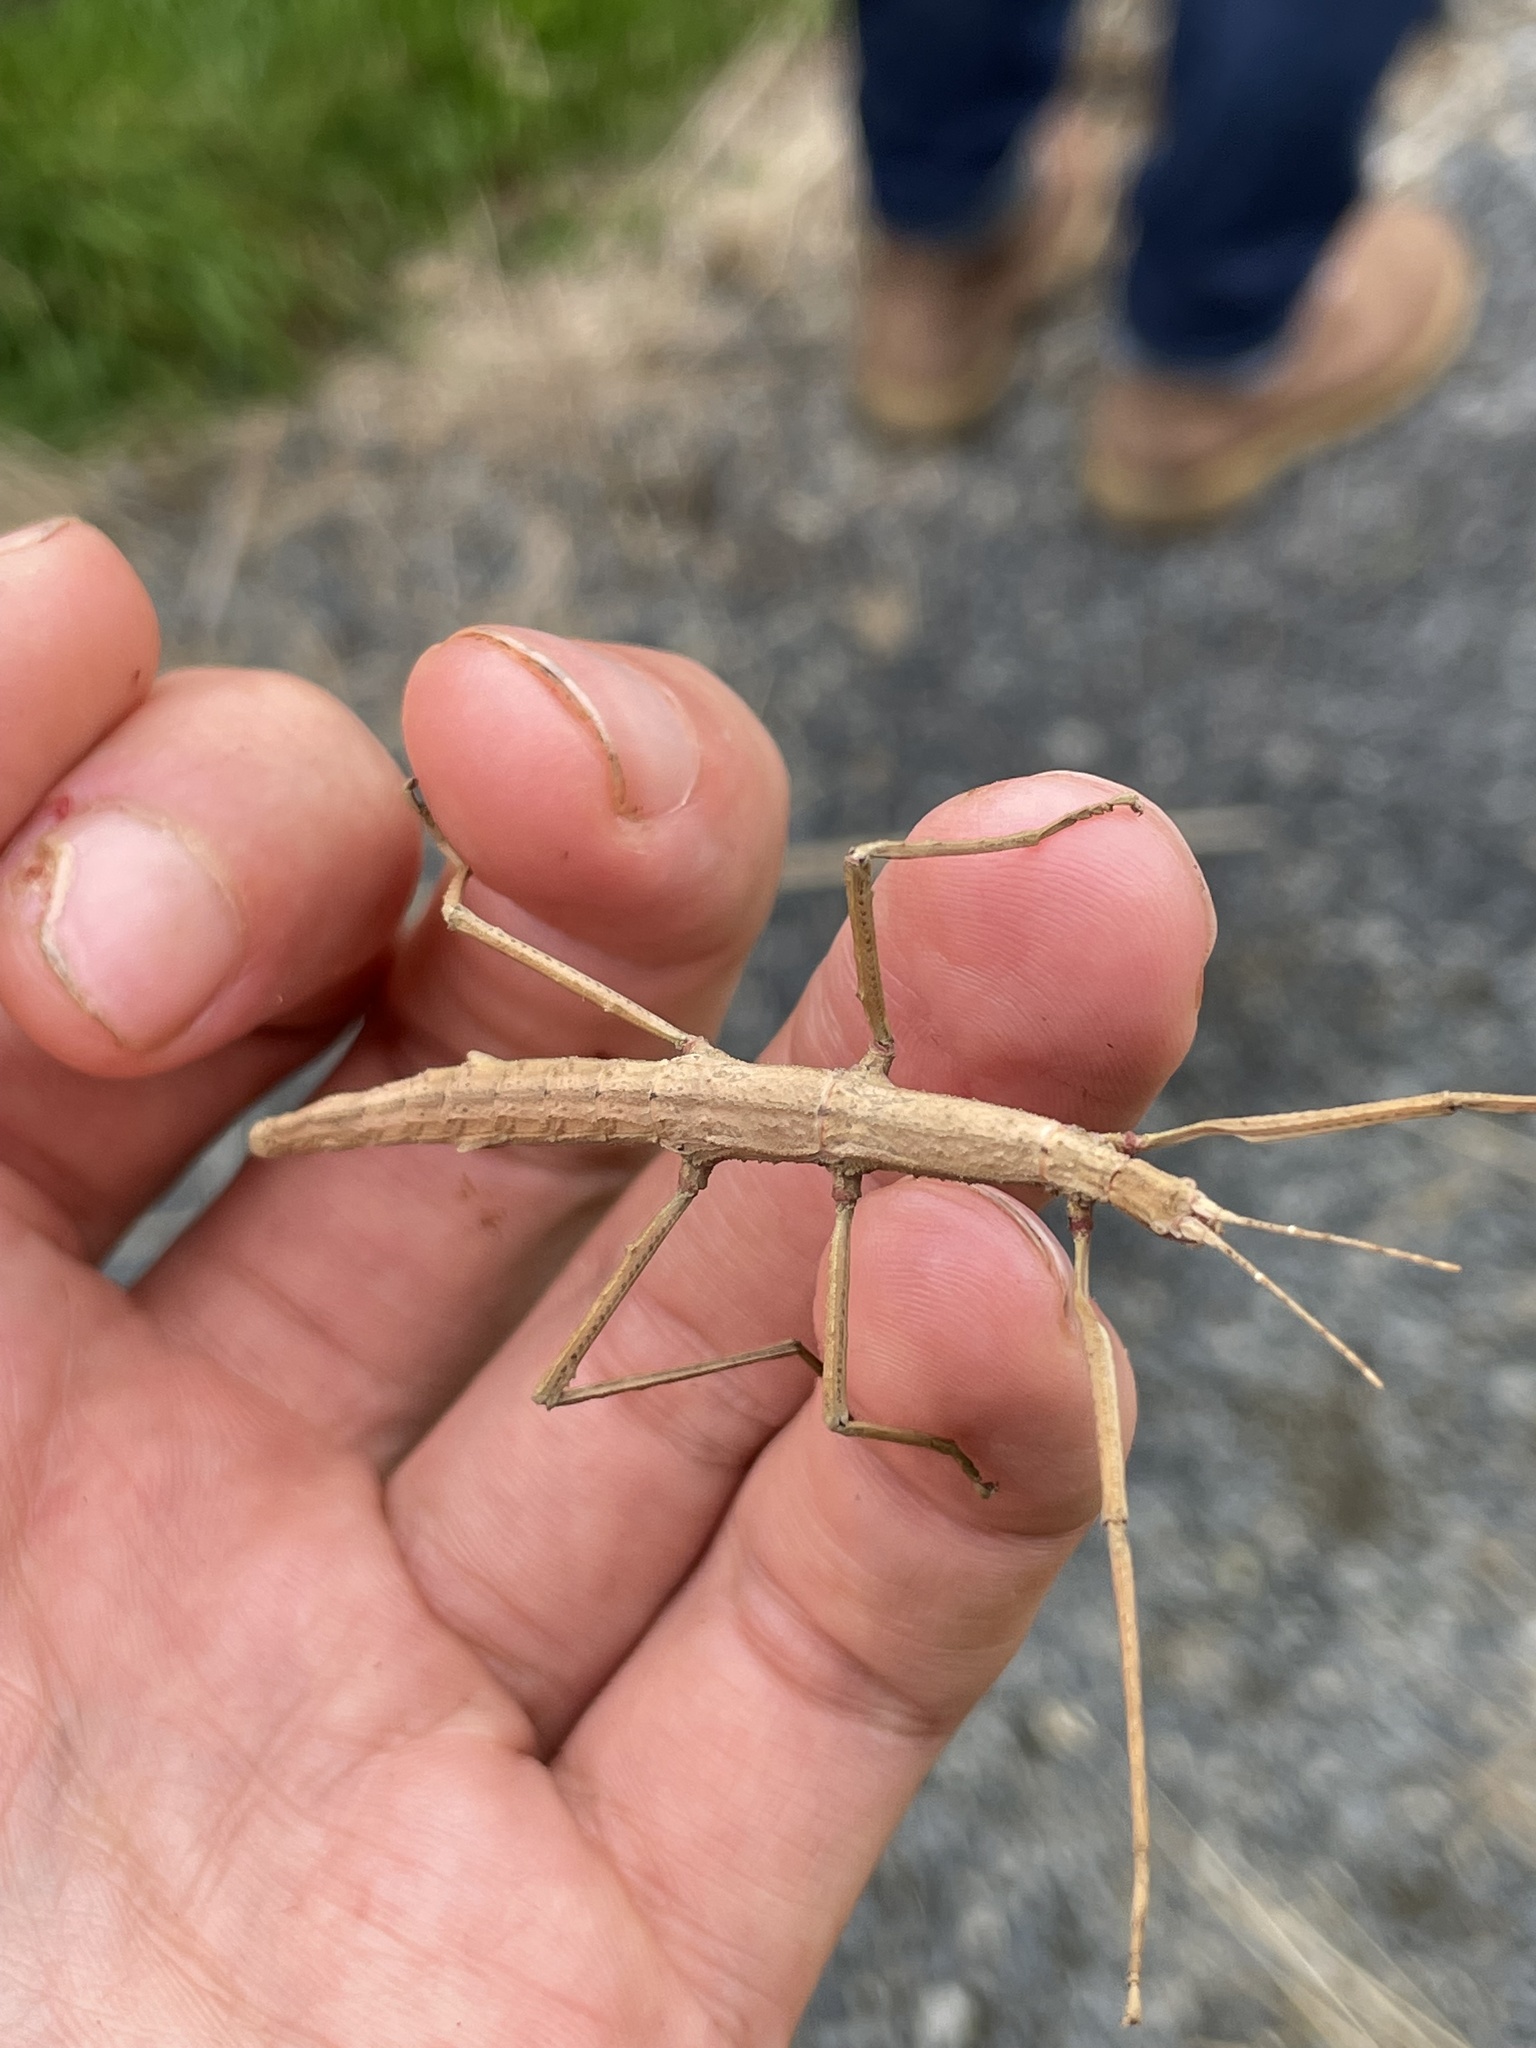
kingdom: Animalia
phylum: Arthropoda
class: Insecta
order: Phasmida
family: Phasmatidae
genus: Niveaphasma
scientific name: Niveaphasma annulatum
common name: Hutton's stick insect
